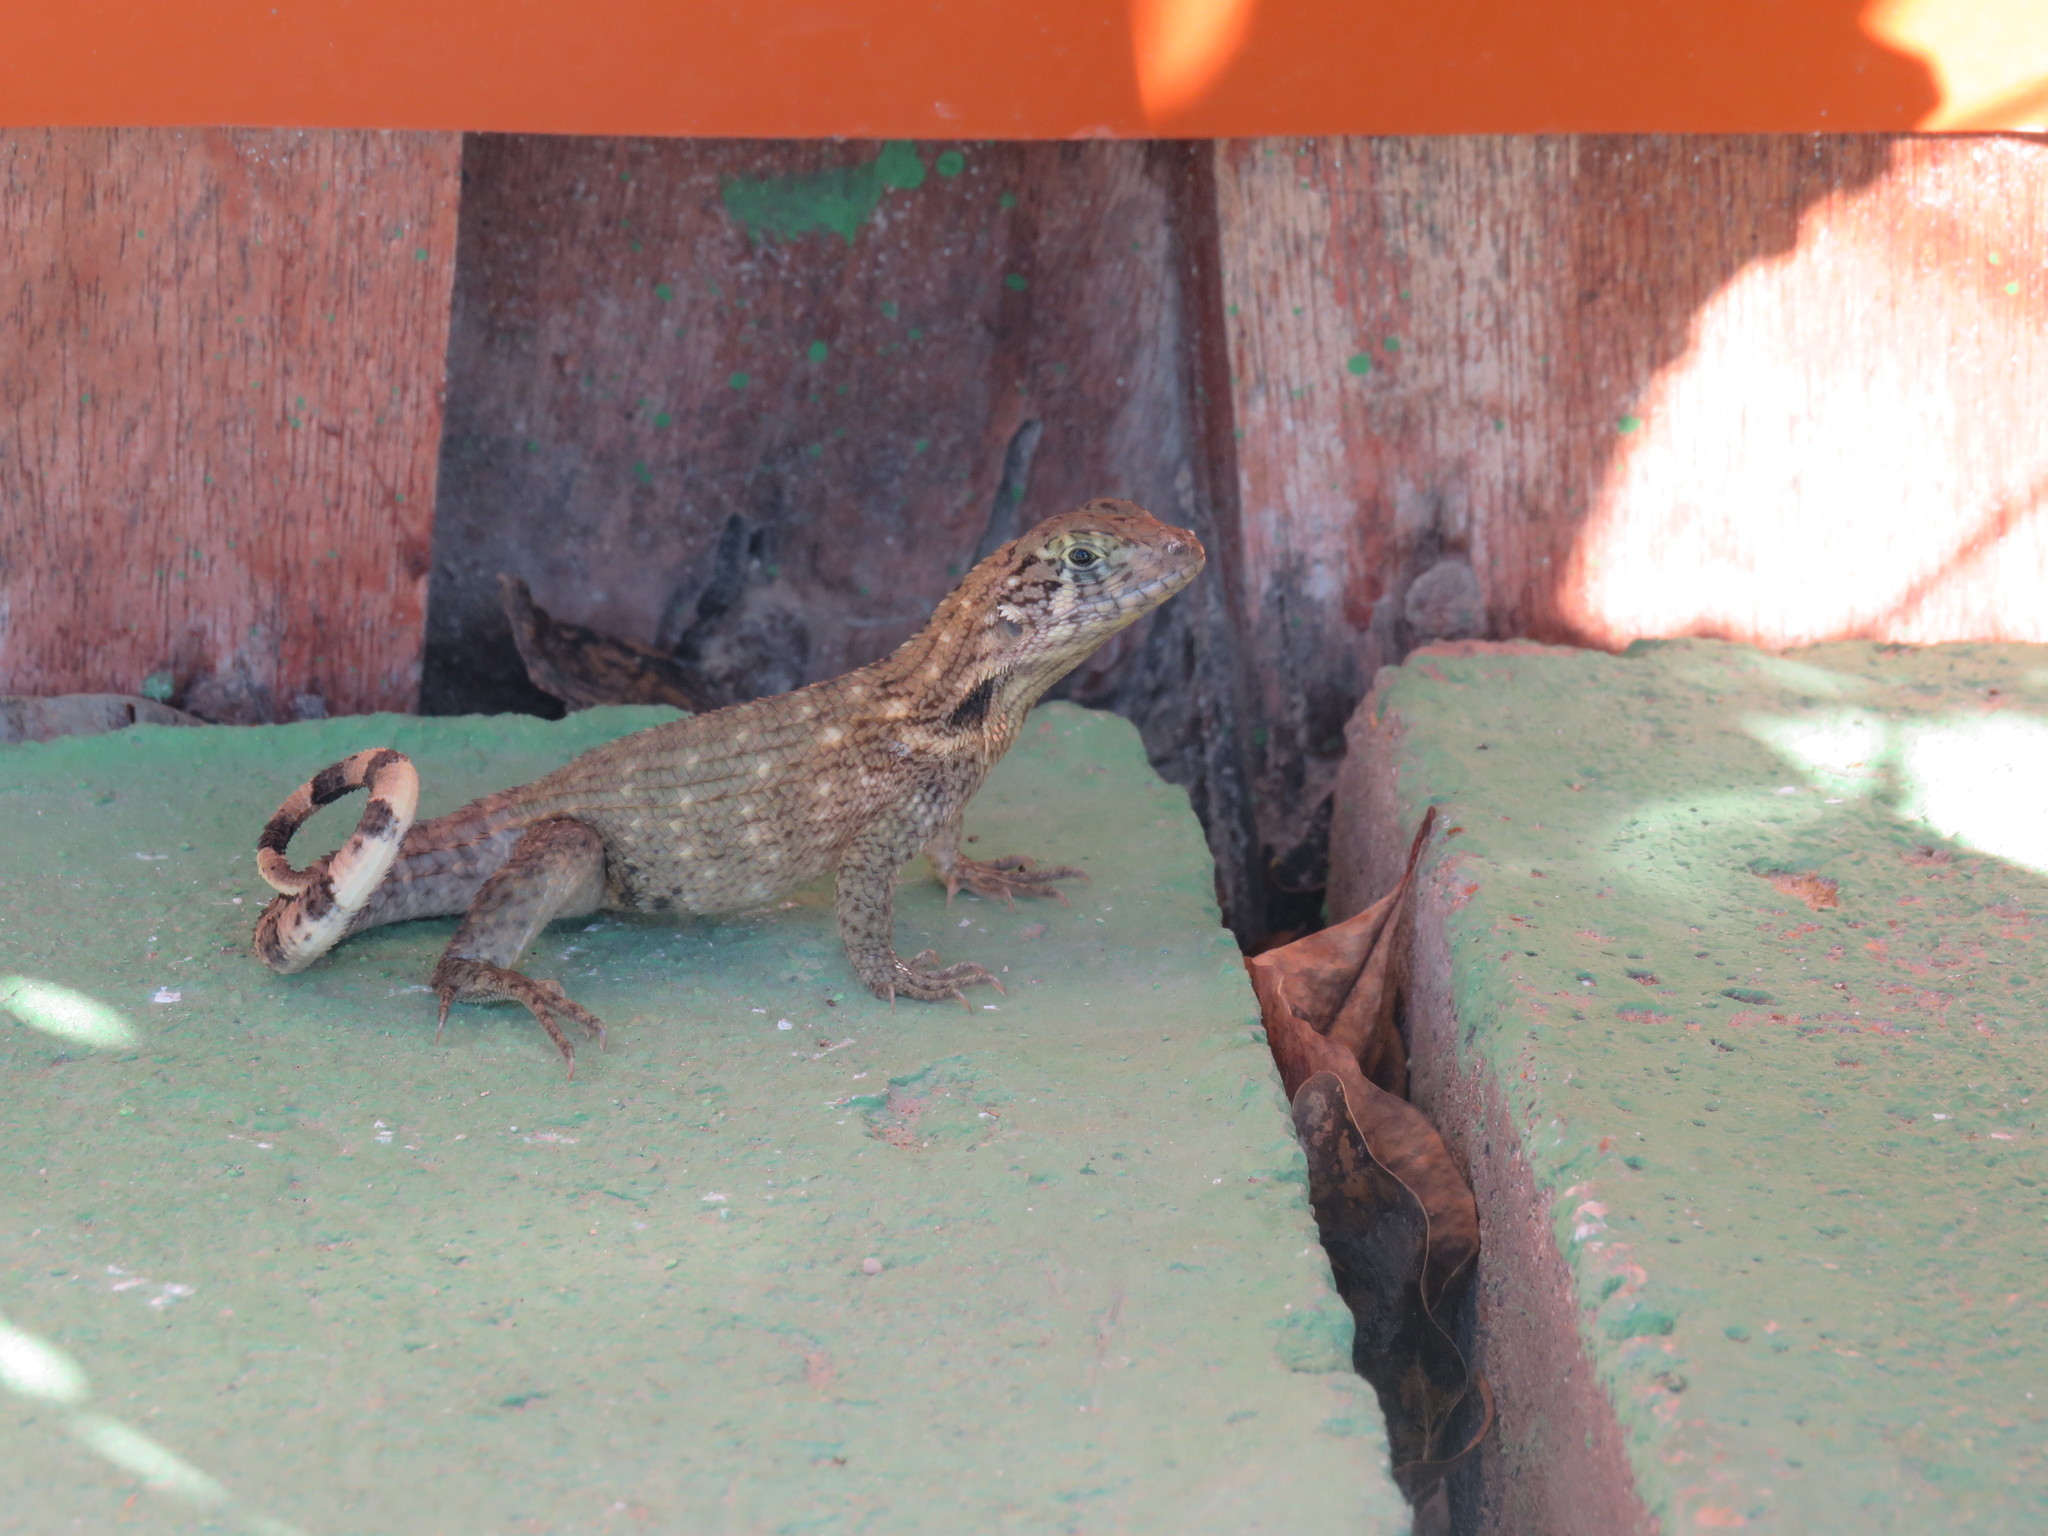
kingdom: Animalia
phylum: Chordata
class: Squamata
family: Leiocephalidae
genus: Leiocephalus
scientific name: Leiocephalus carinatus
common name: Northern curly-tailed lizard
